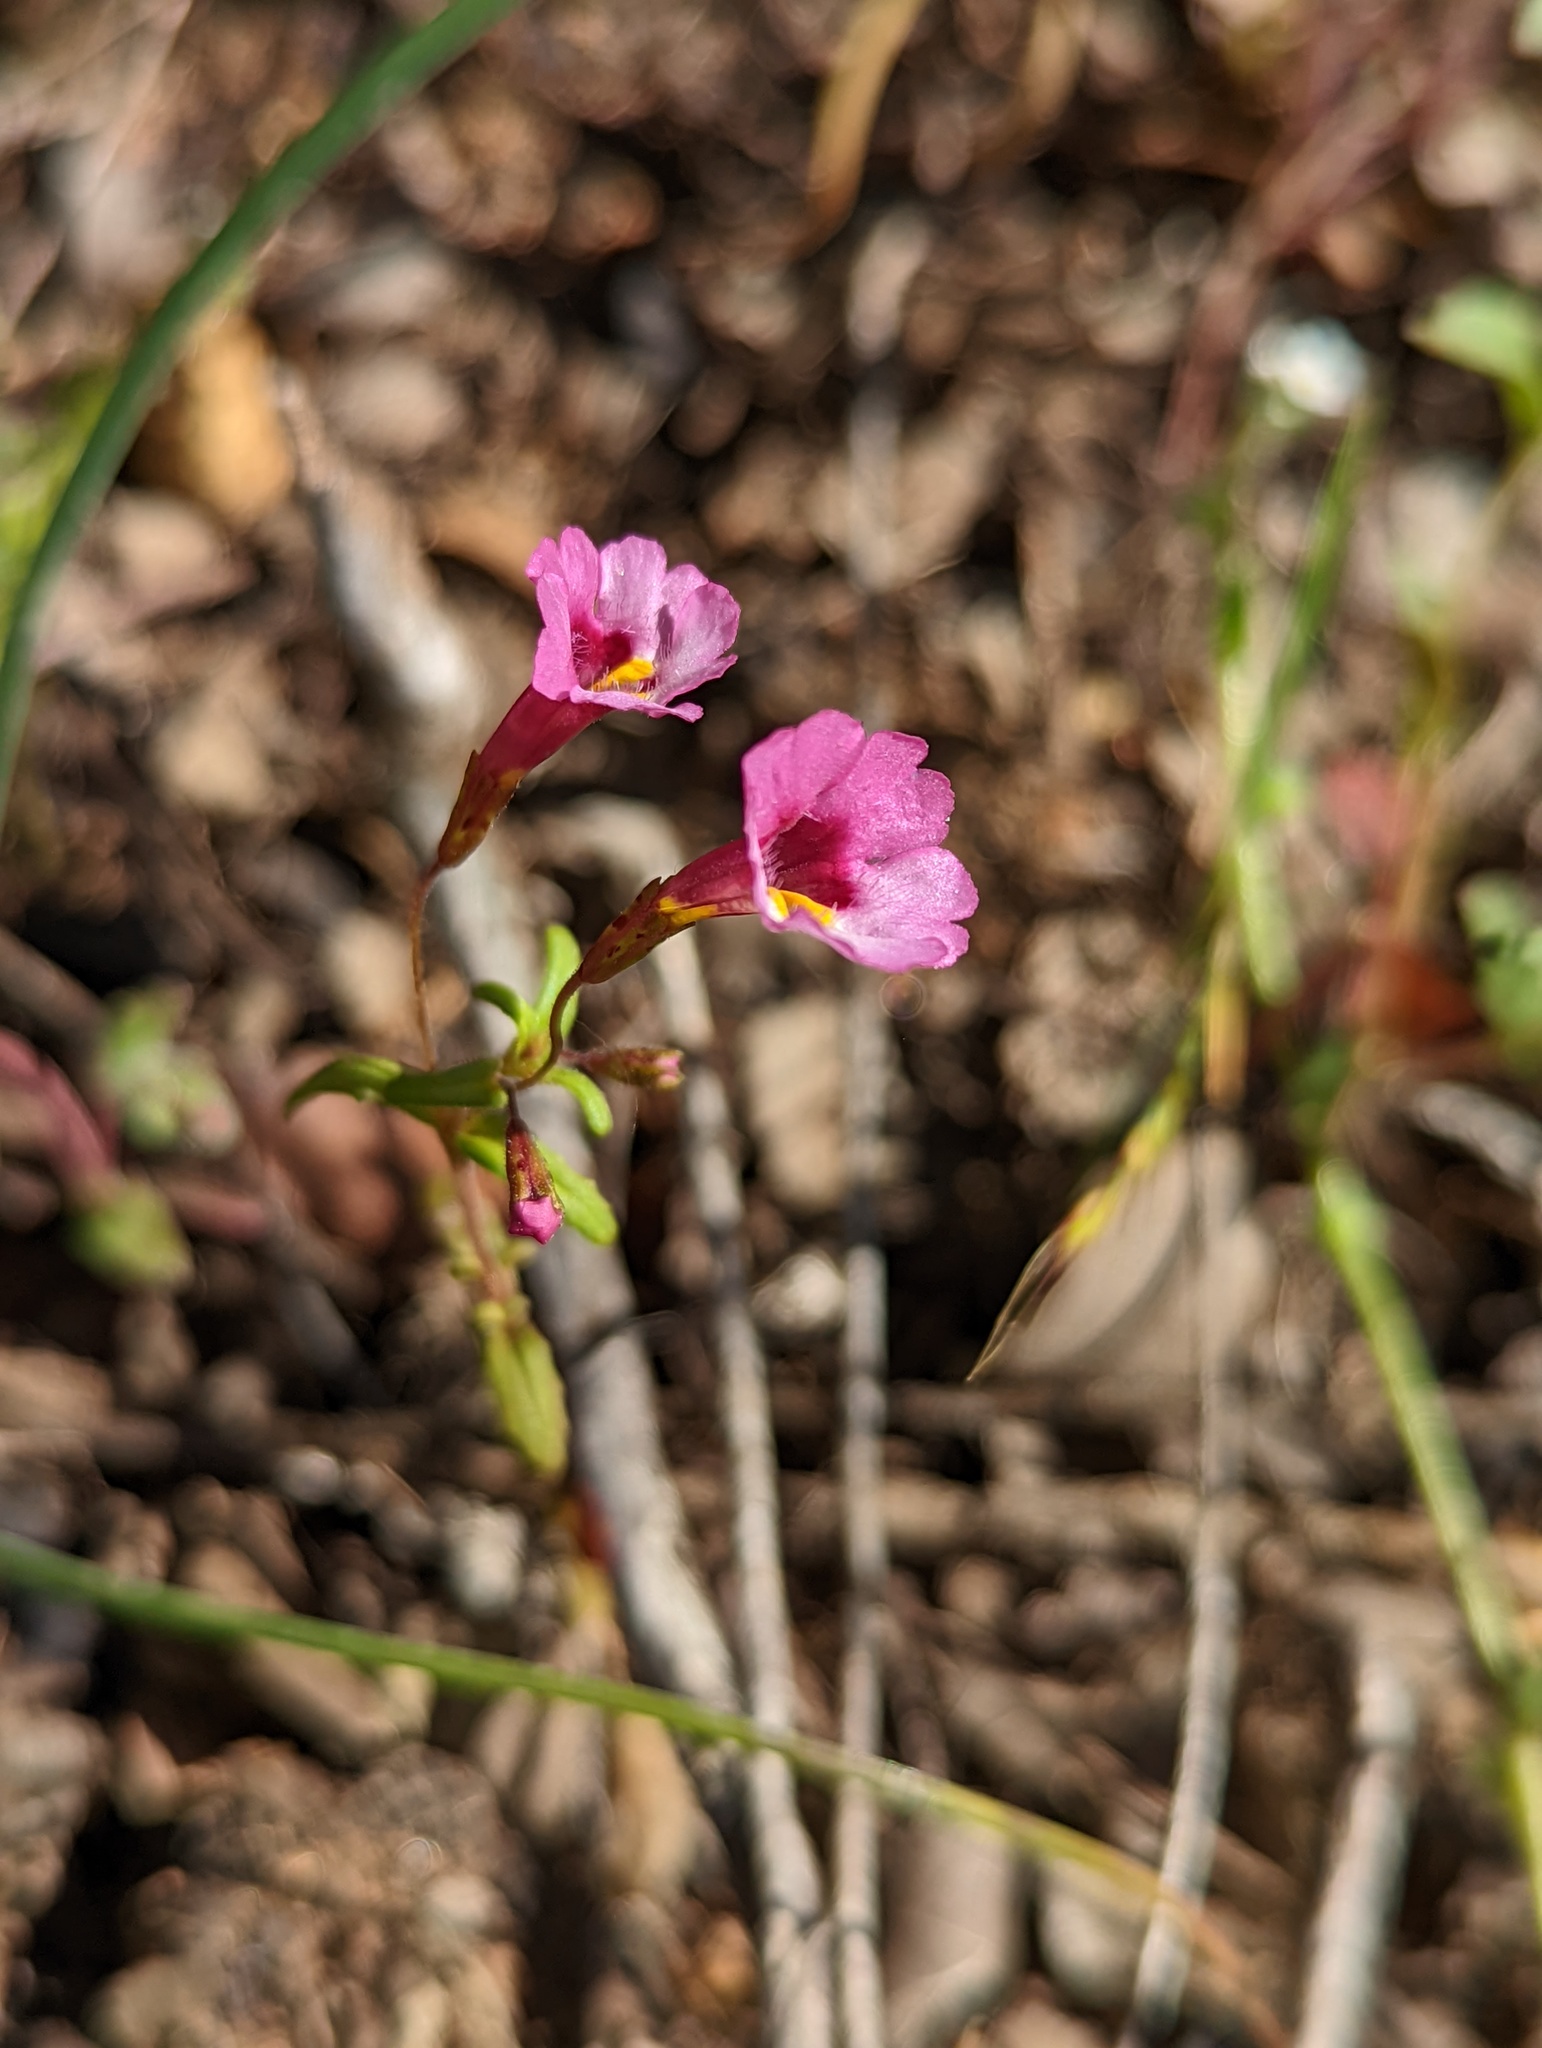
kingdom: Plantae
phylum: Tracheophyta
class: Magnoliopsida
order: Lamiales
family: Phrymaceae
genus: Erythranthe
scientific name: Erythranthe diffusa
